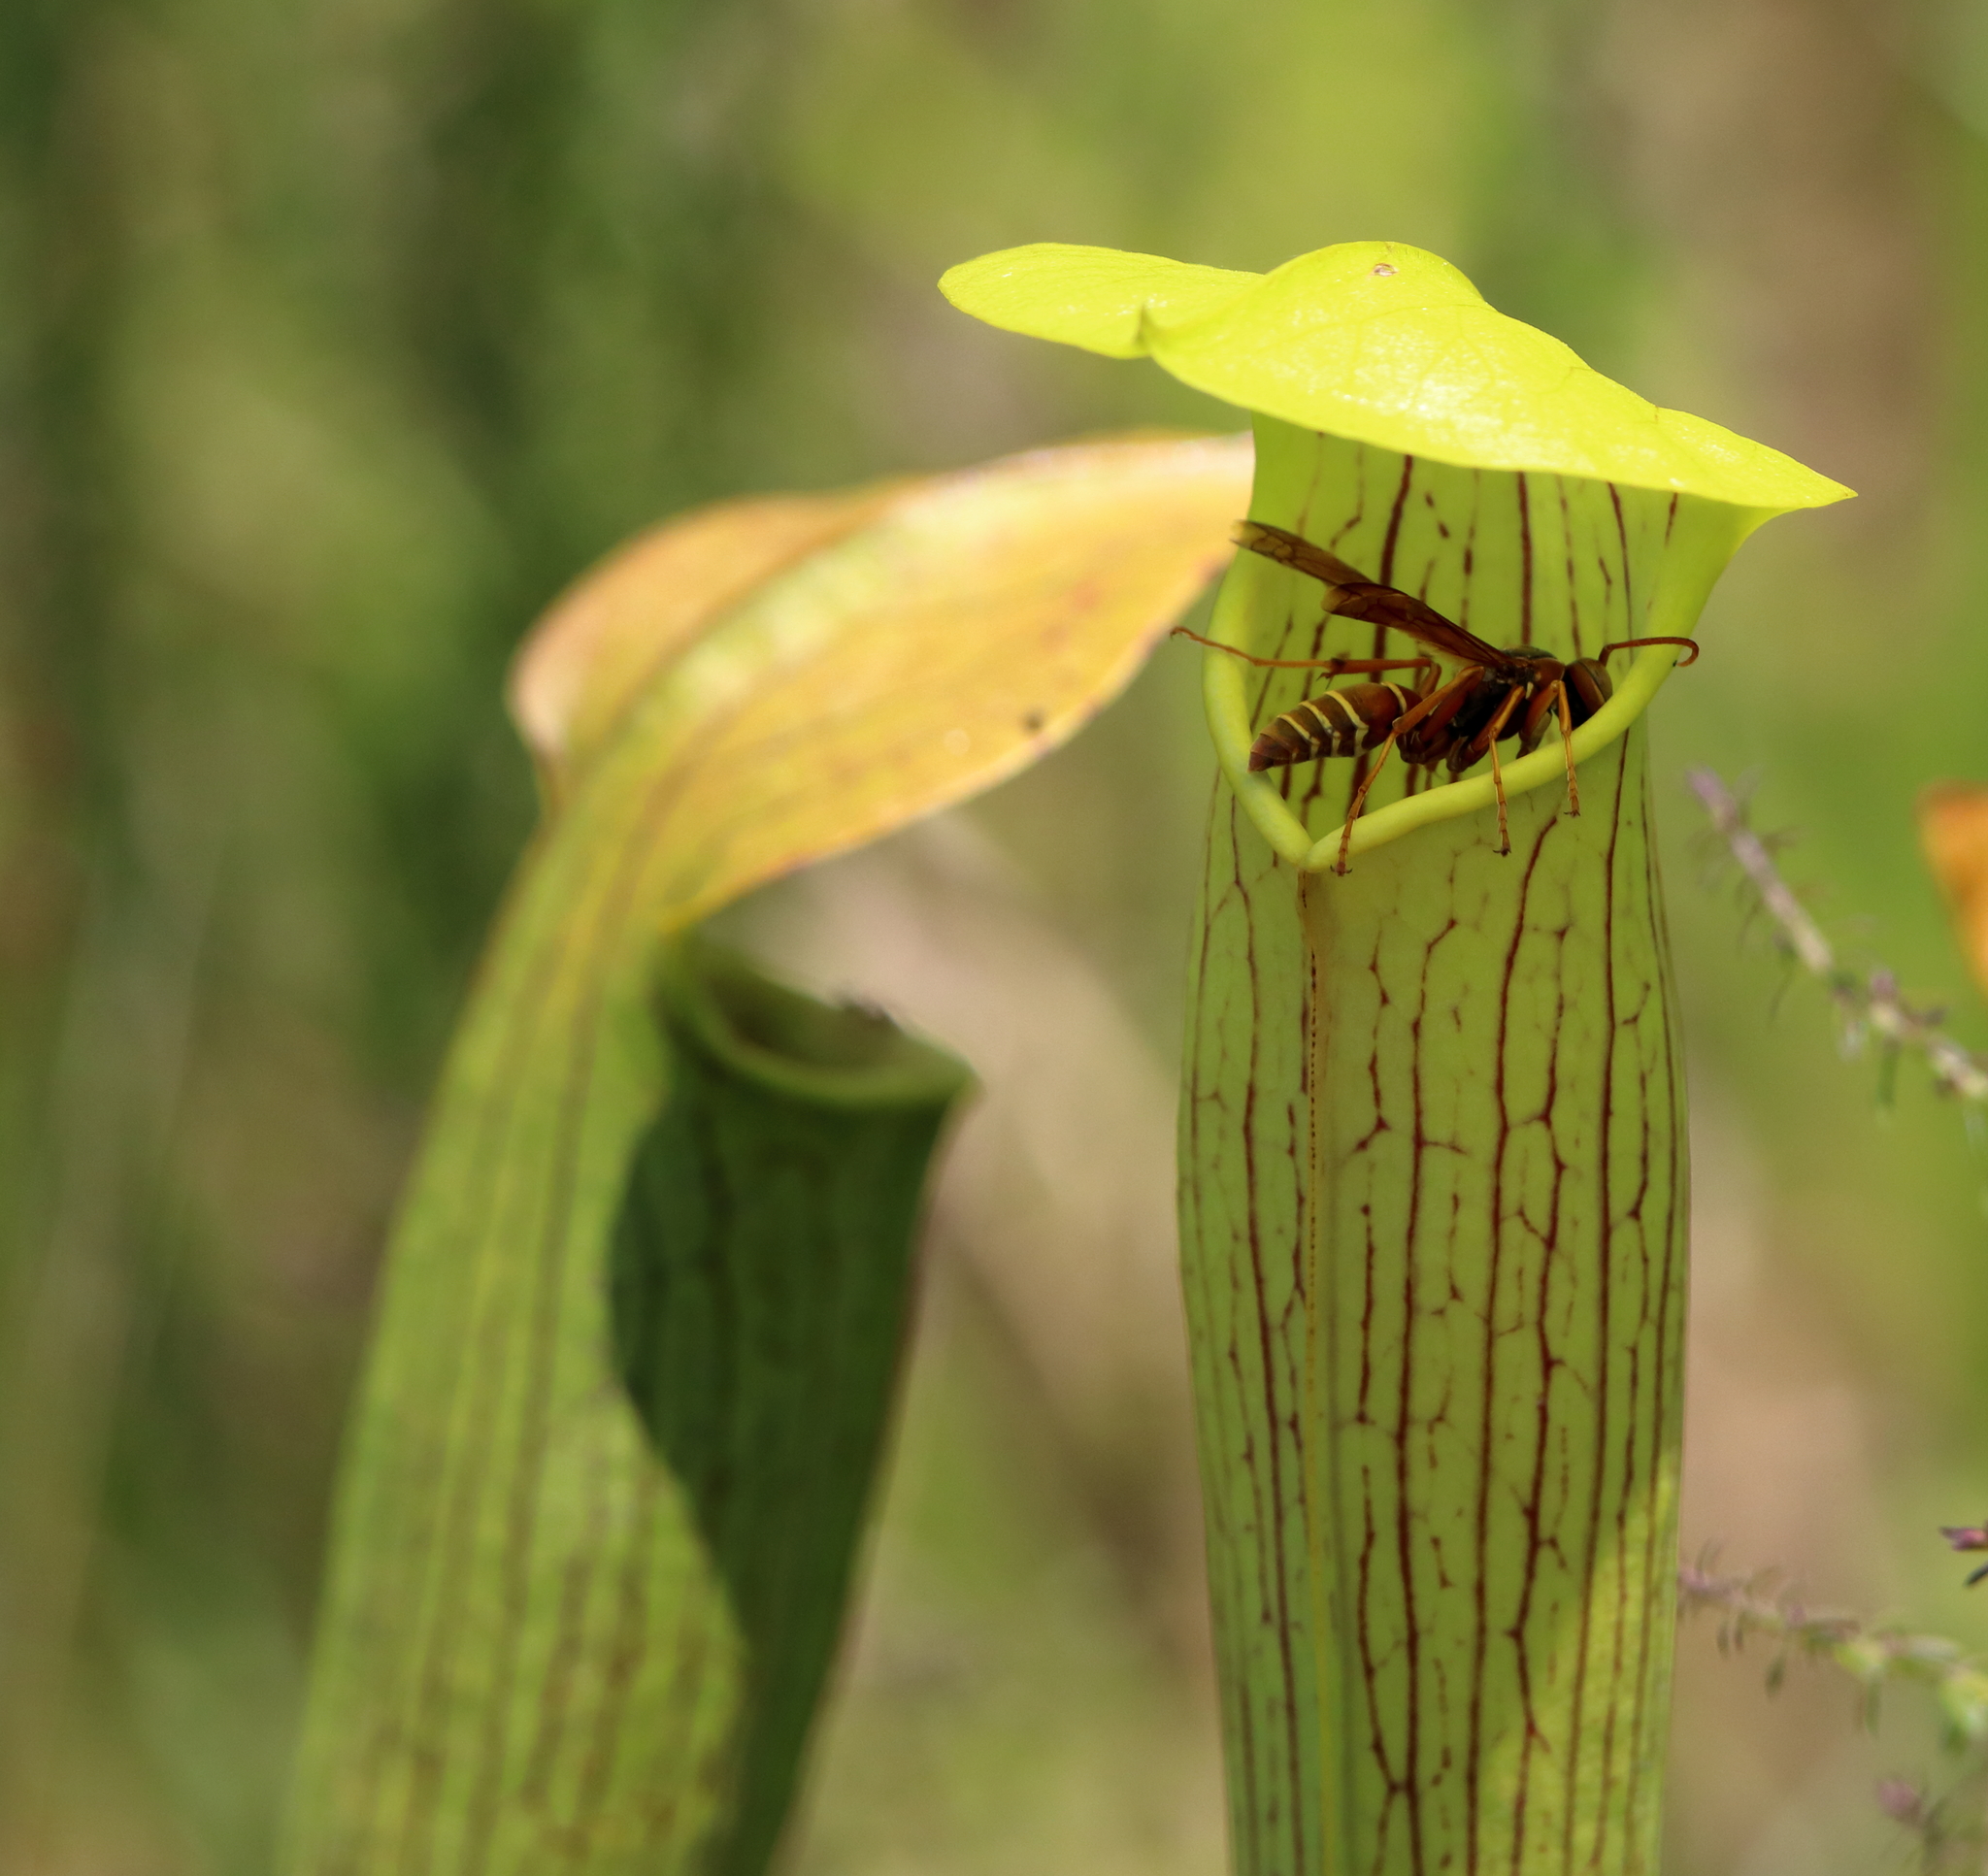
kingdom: Plantae
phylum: Tracheophyta
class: Magnoliopsida
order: Ericales
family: Sarraceniaceae
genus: Sarracenia
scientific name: Sarracenia alata
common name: Yellow trumpets
